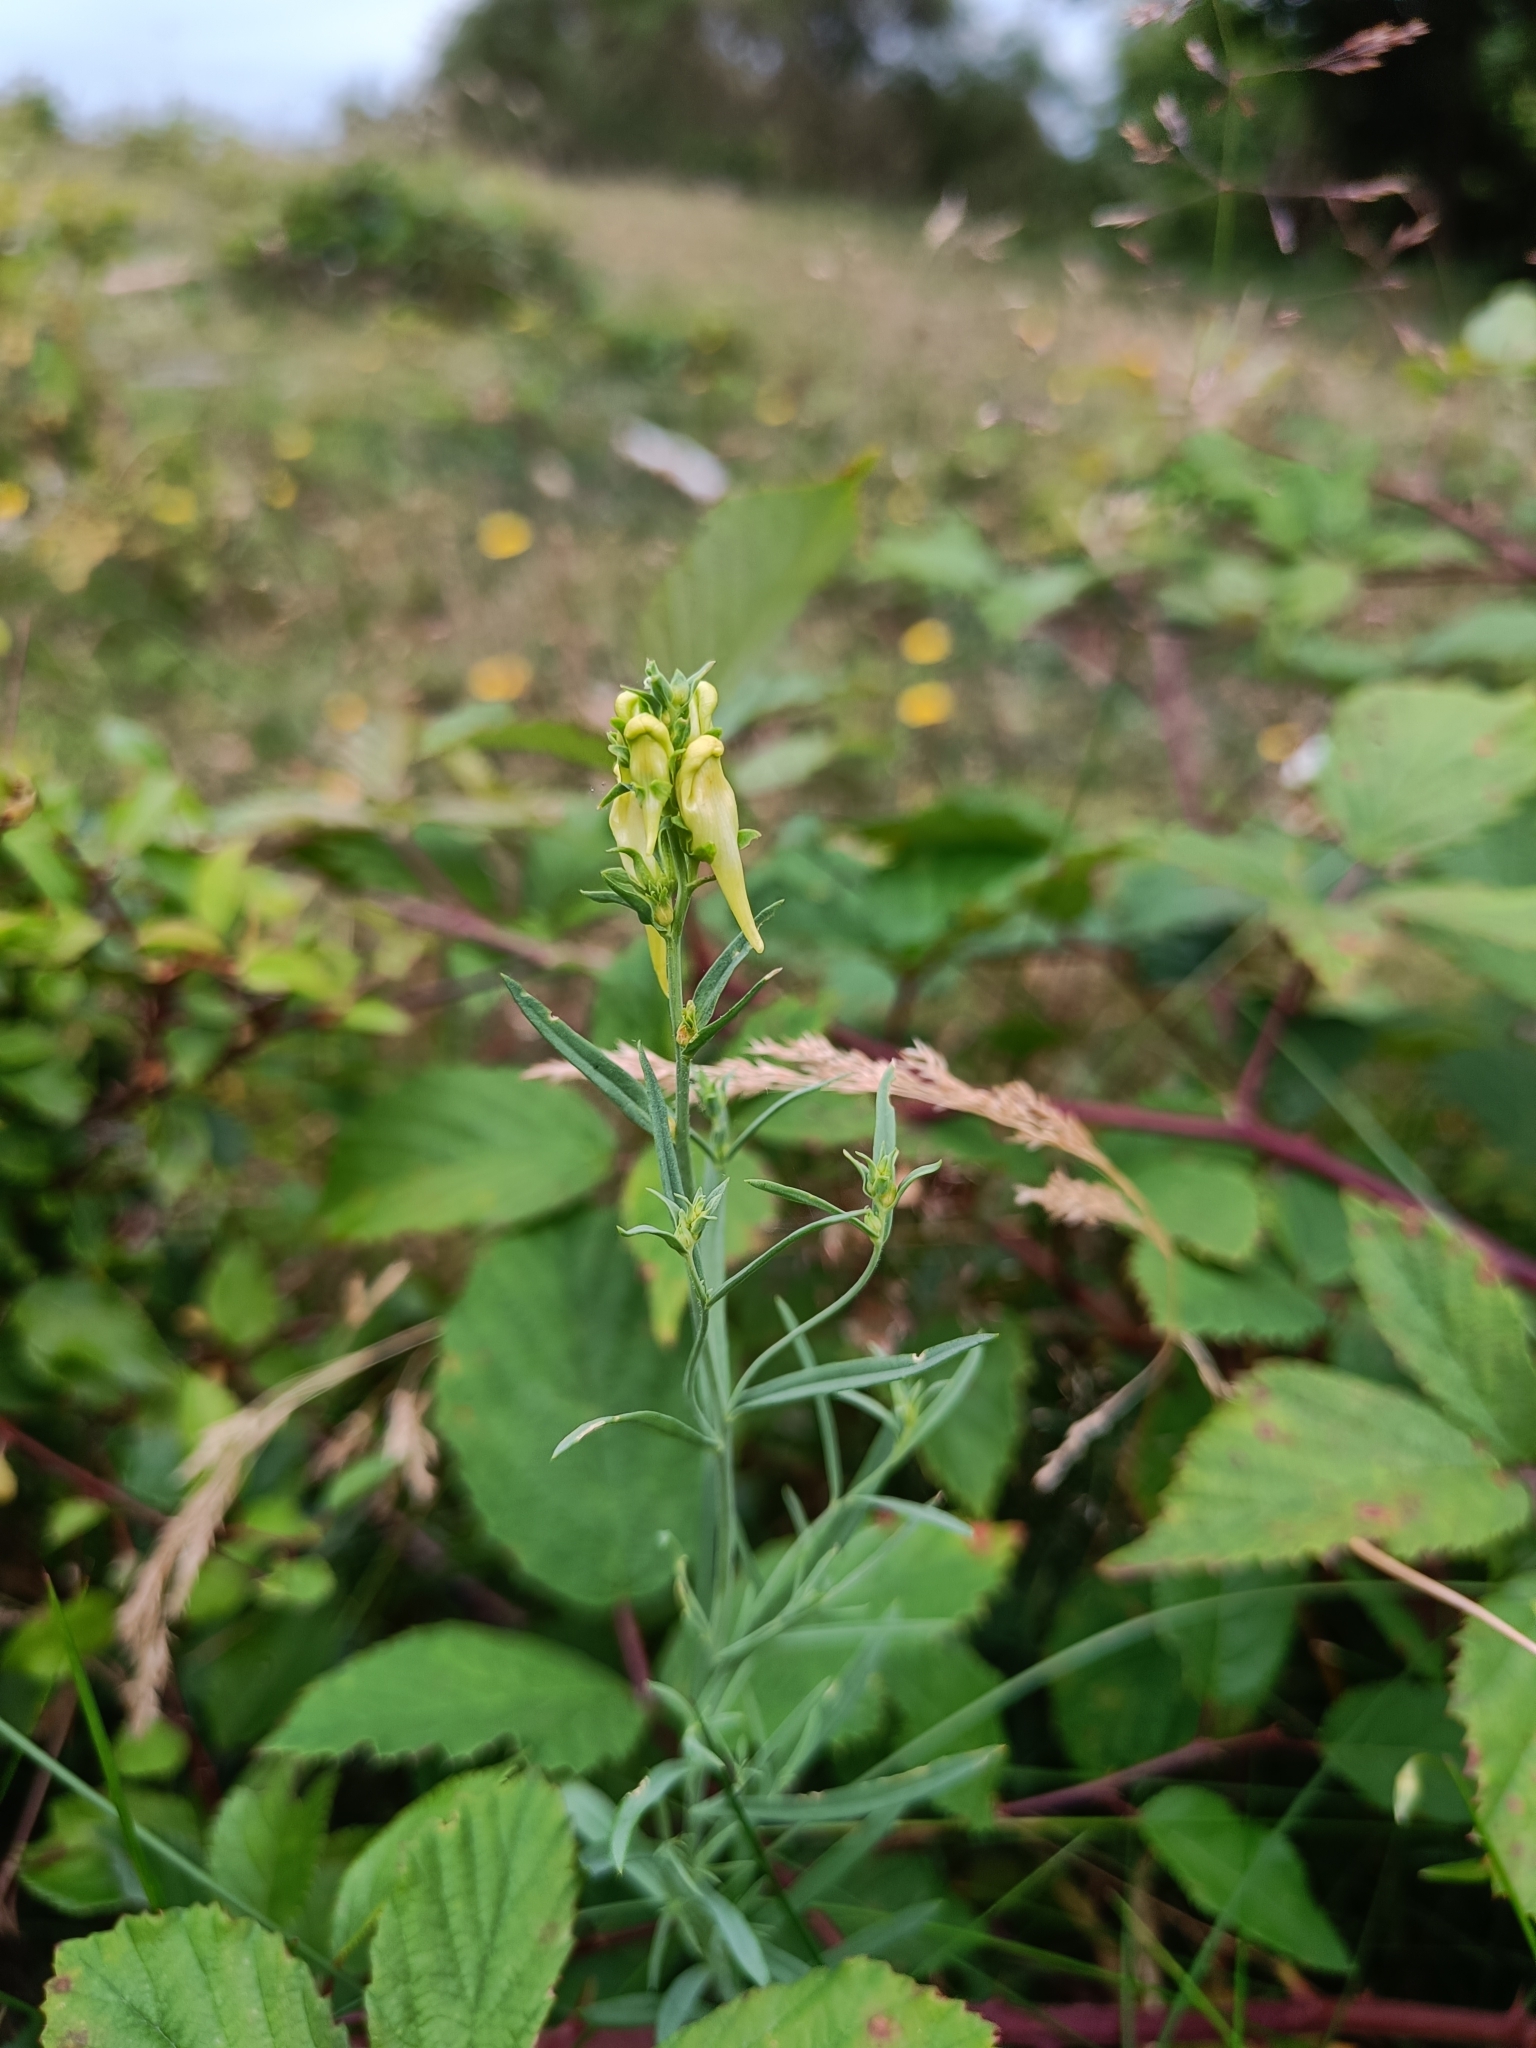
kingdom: Plantae
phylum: Tracheophyta
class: Magnoliopsida
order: Lamiales
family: Plantaginaceae
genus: Linaria
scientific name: Linaria vulgaris
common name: Butter and eggs
